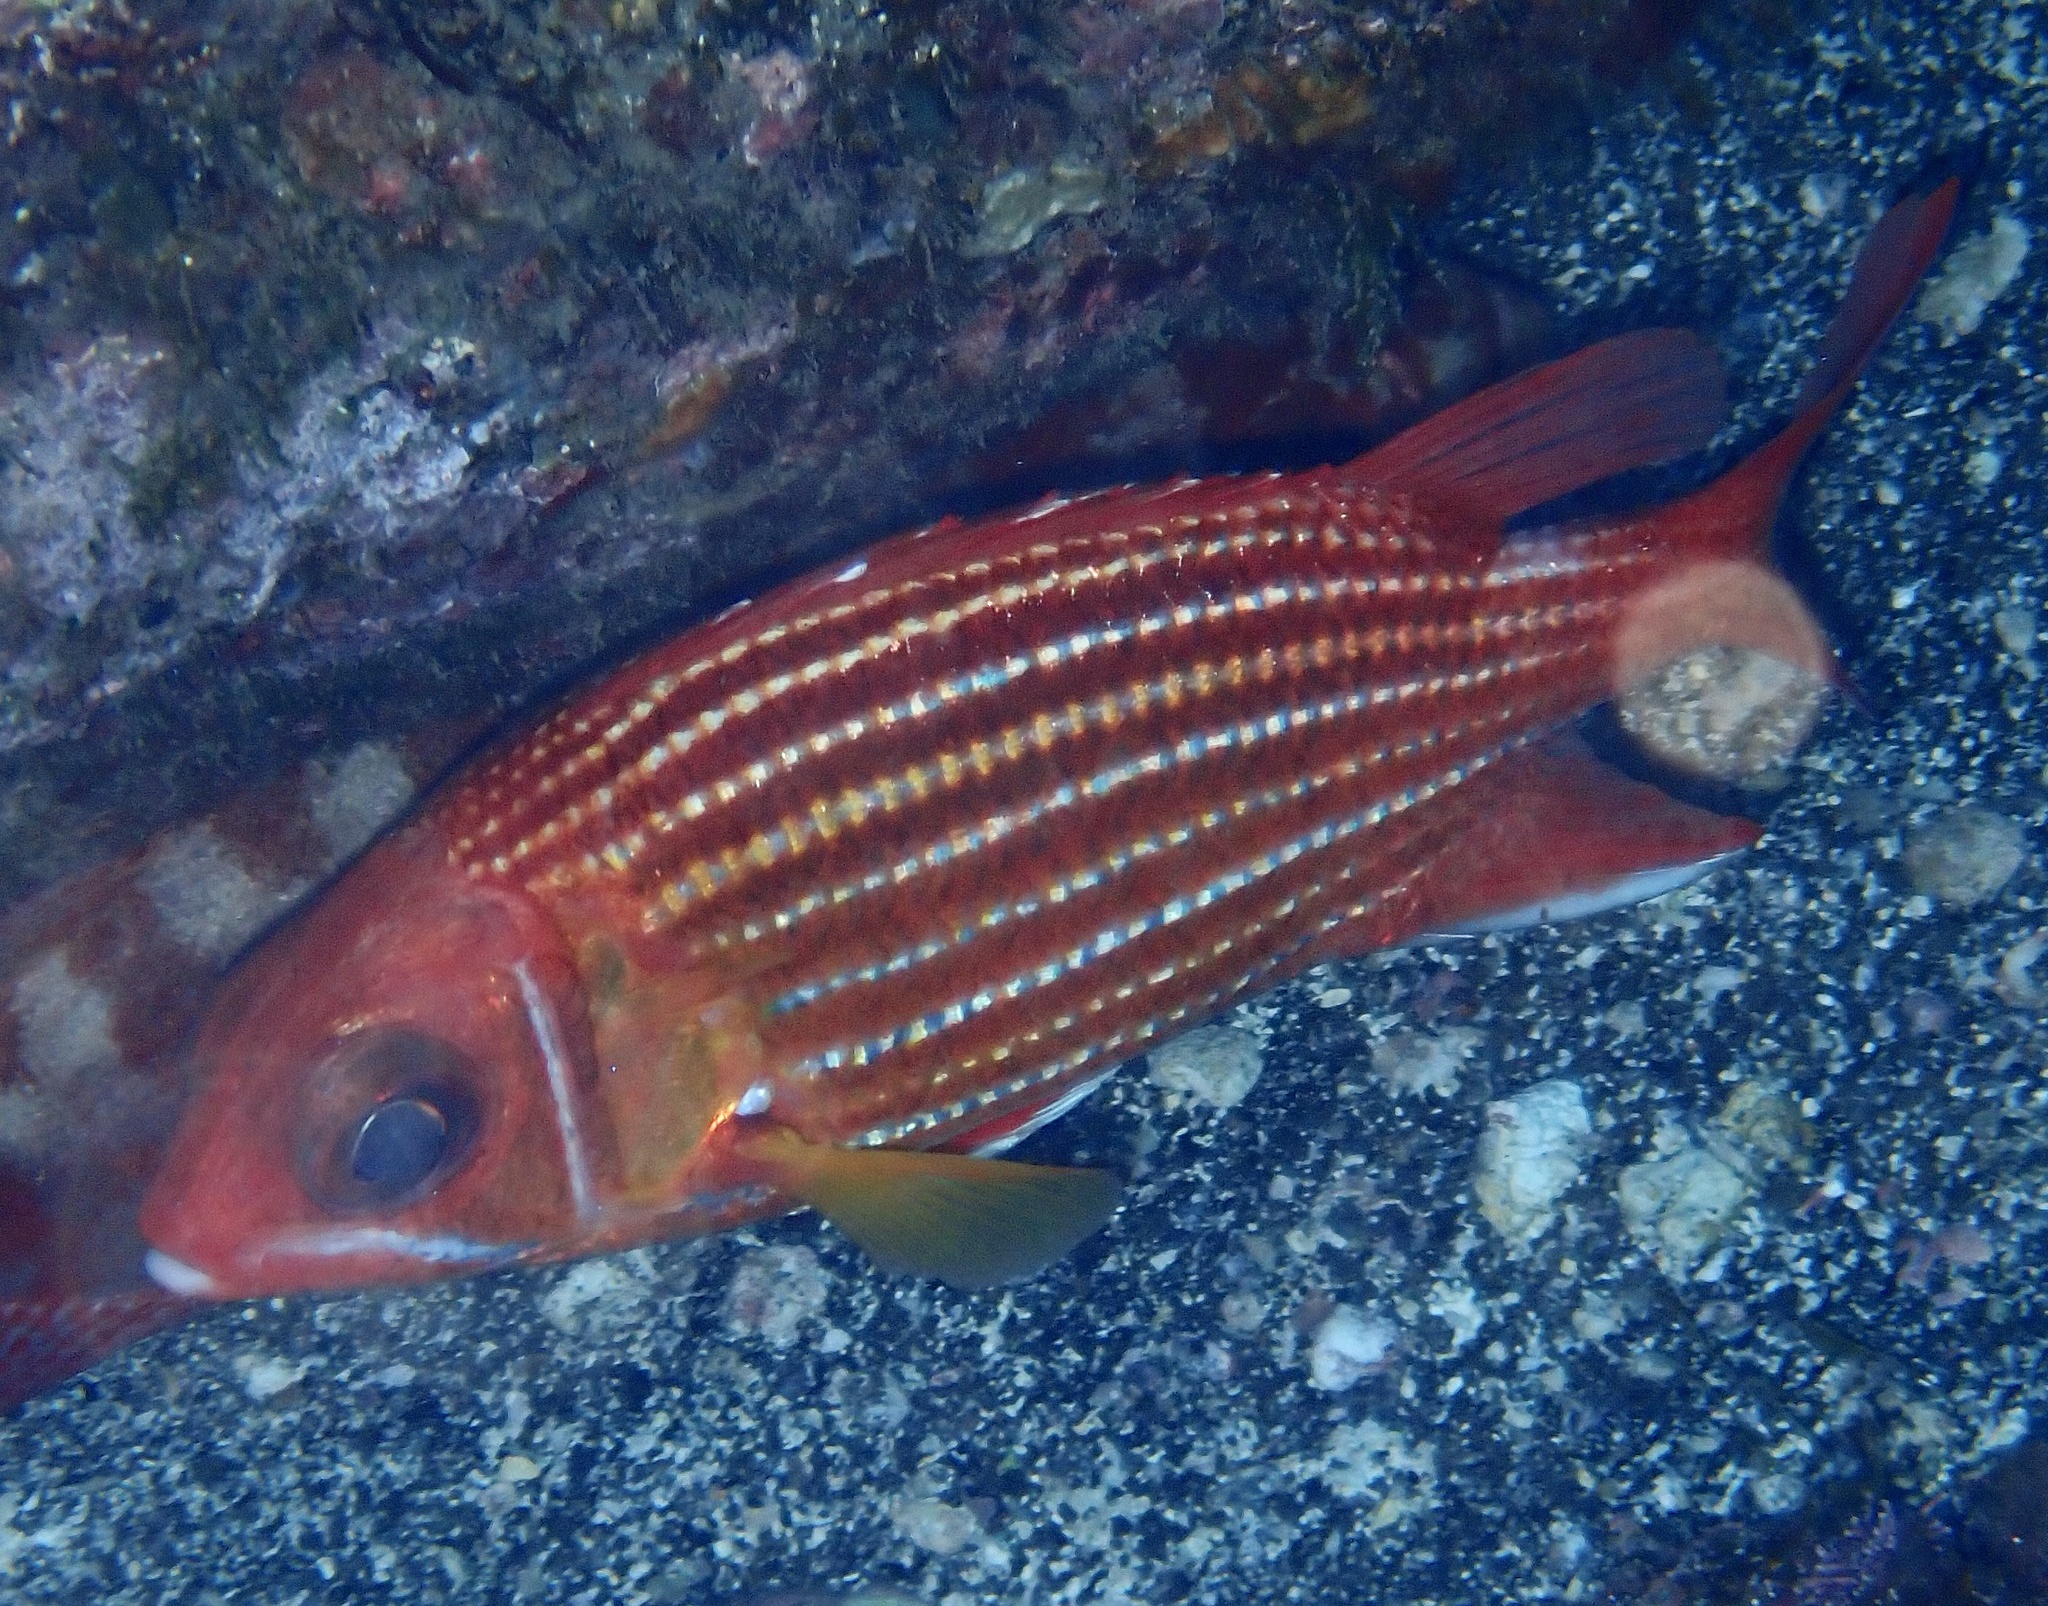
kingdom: Animalia
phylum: Chordata
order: Beryciformes
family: Holocentridae
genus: Sargocentron
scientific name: Sargocentron hastatum
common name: Red soldierfish
